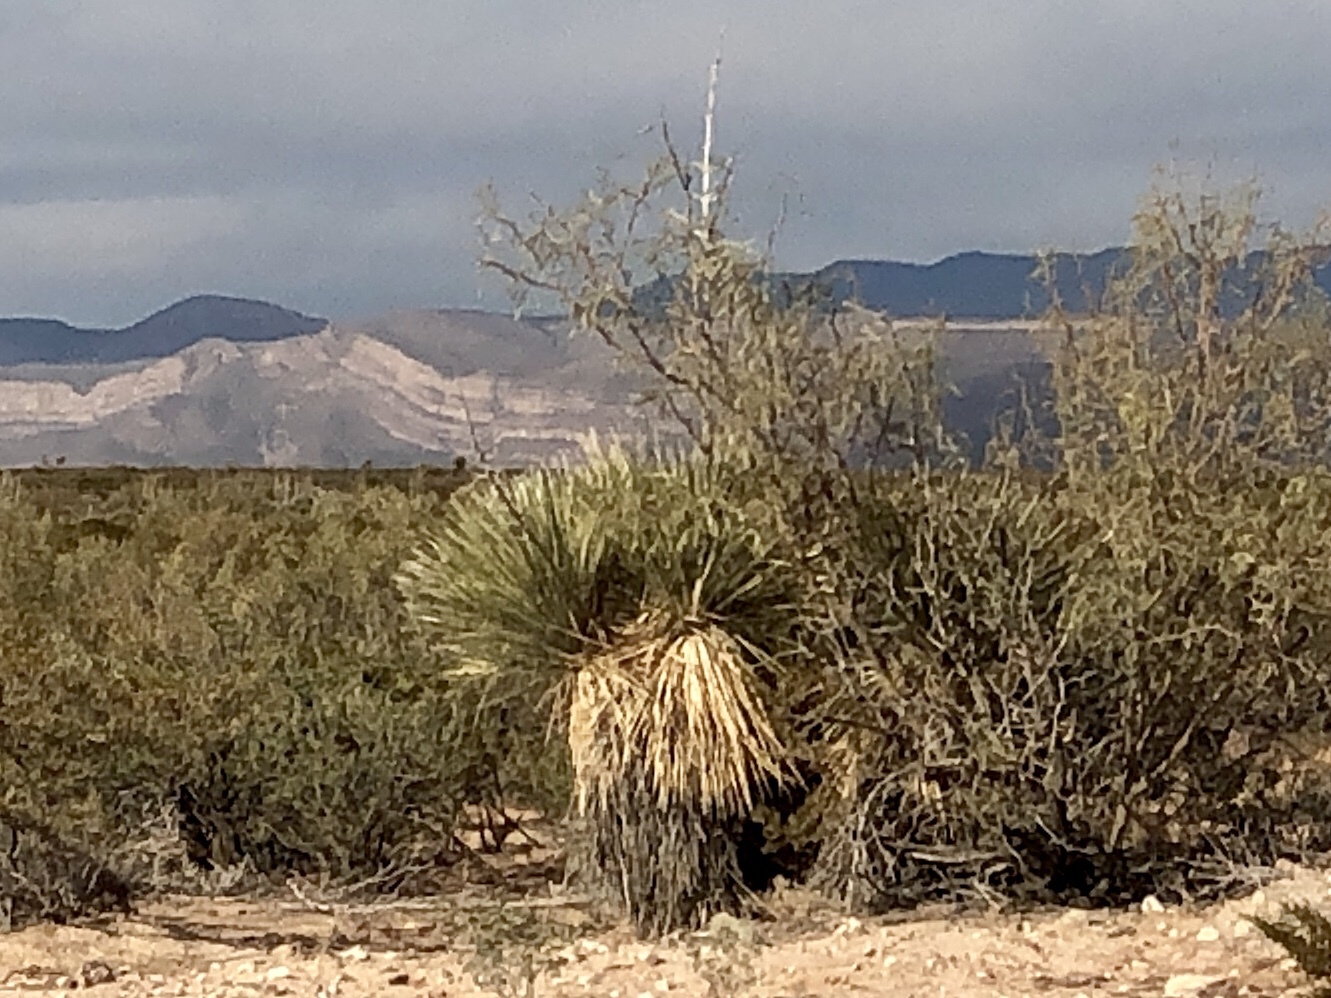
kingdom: Plantae
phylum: Tracheophyta
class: Liliopsida
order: Asparagales
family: Asparagaceae
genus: Yucca
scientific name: Yucca elata
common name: Palmella
